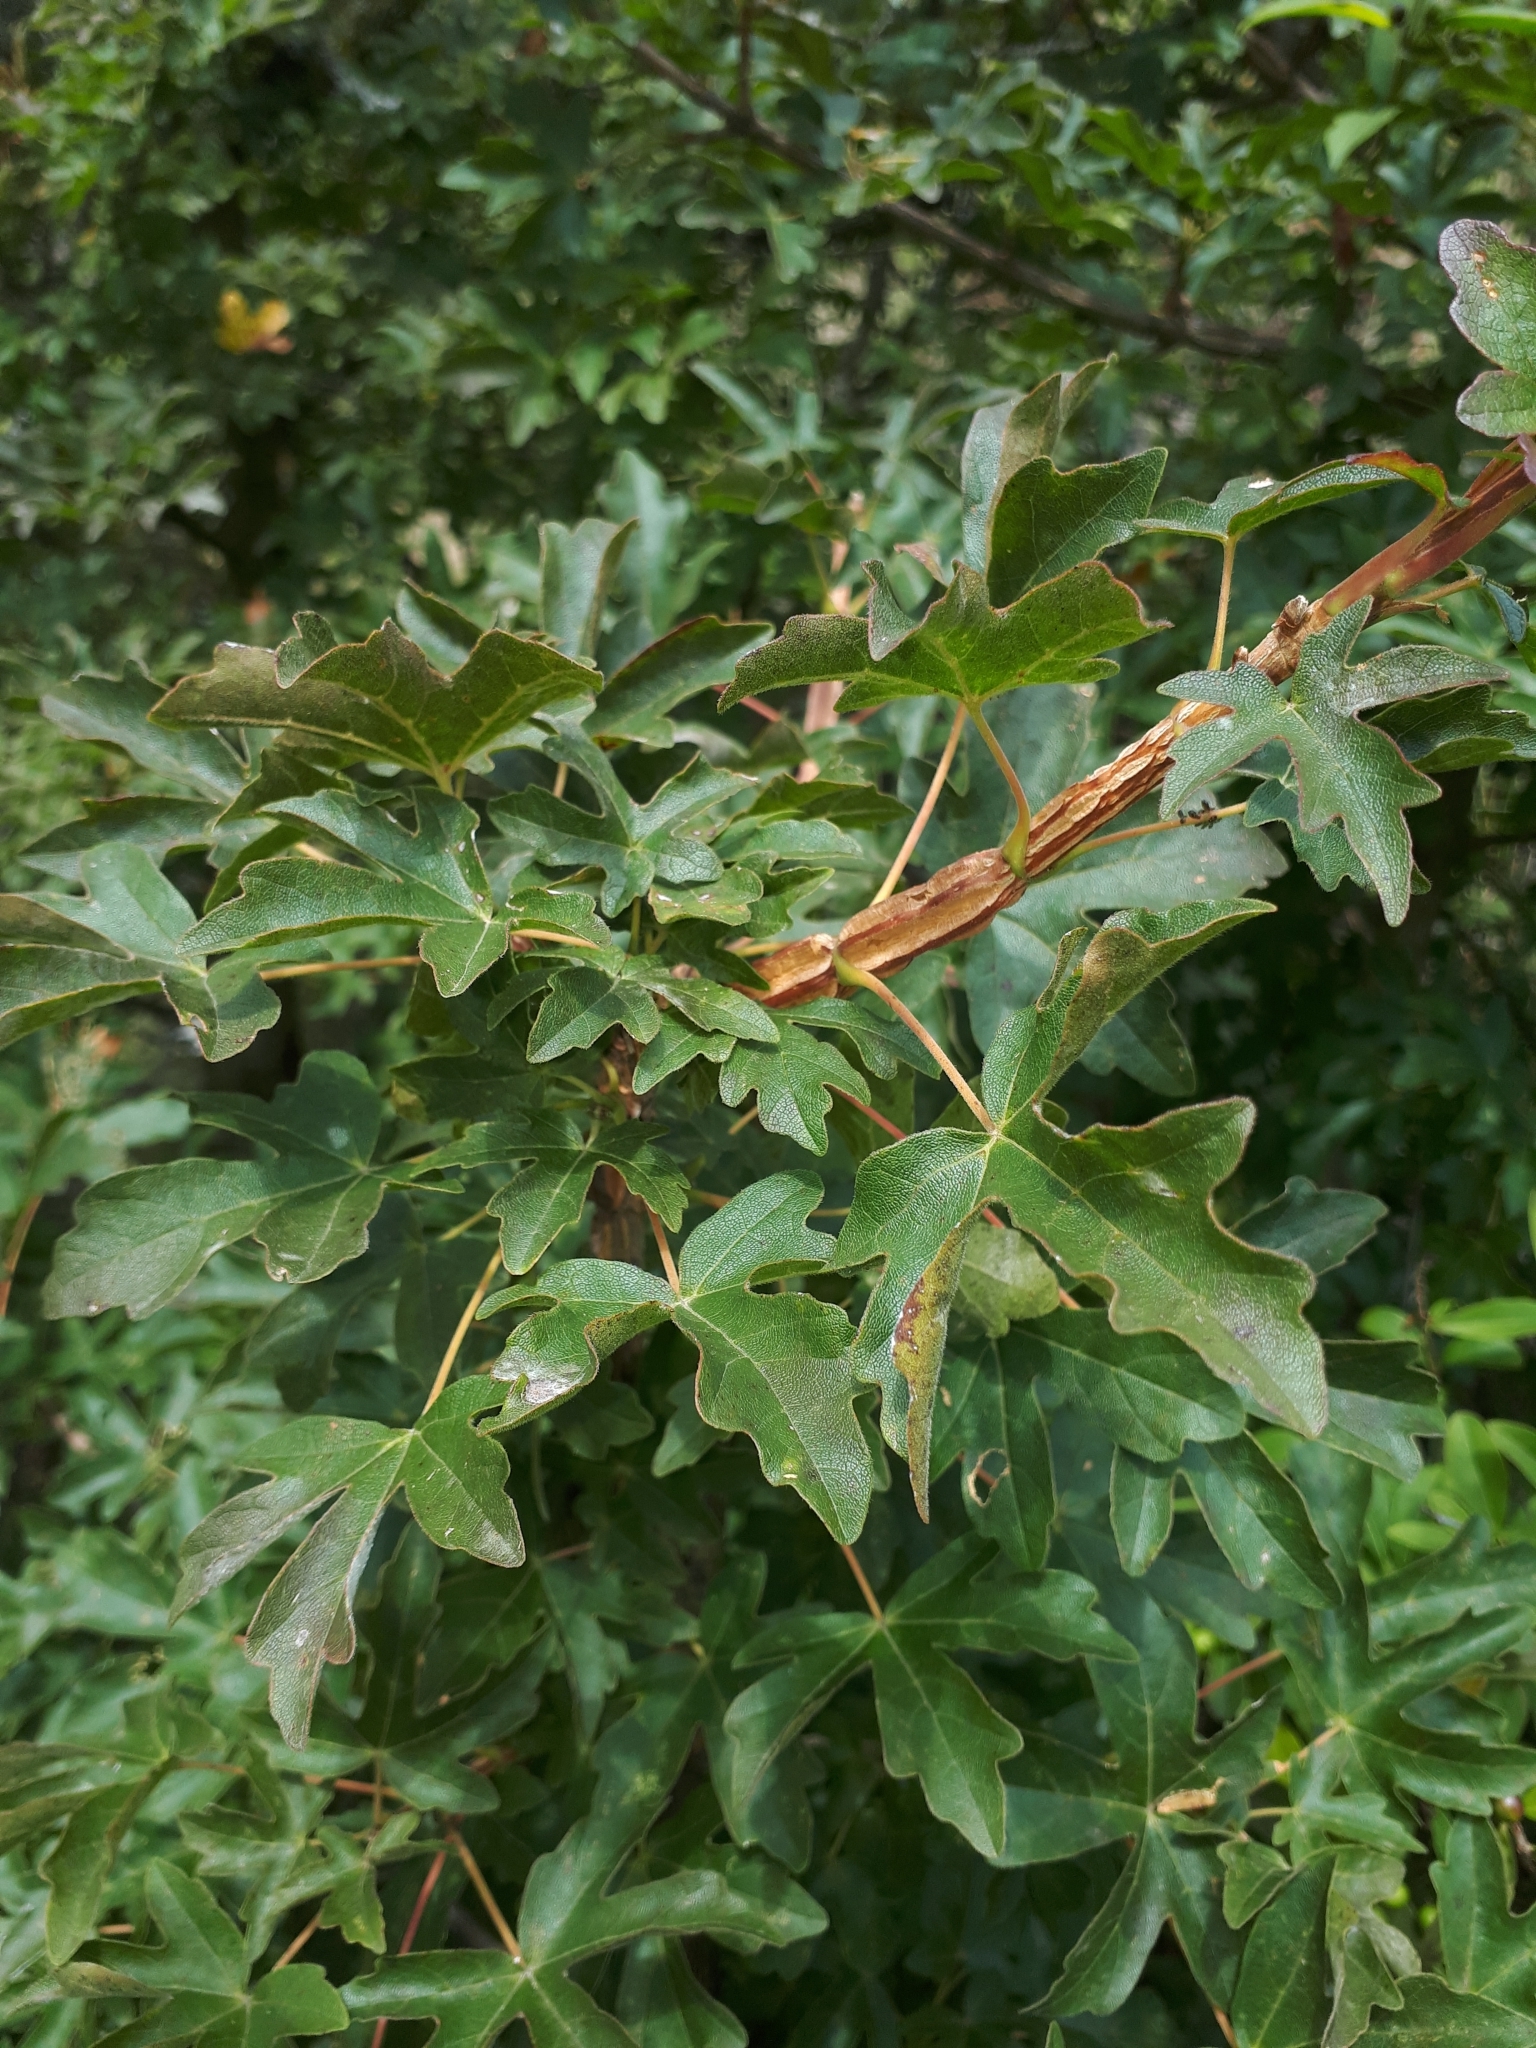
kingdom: Plantae
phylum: Tracheophyta
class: Magnoliopsida
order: Sapindales
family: Sapindaceae
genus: Acer
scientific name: Acer campestre
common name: Field maple
